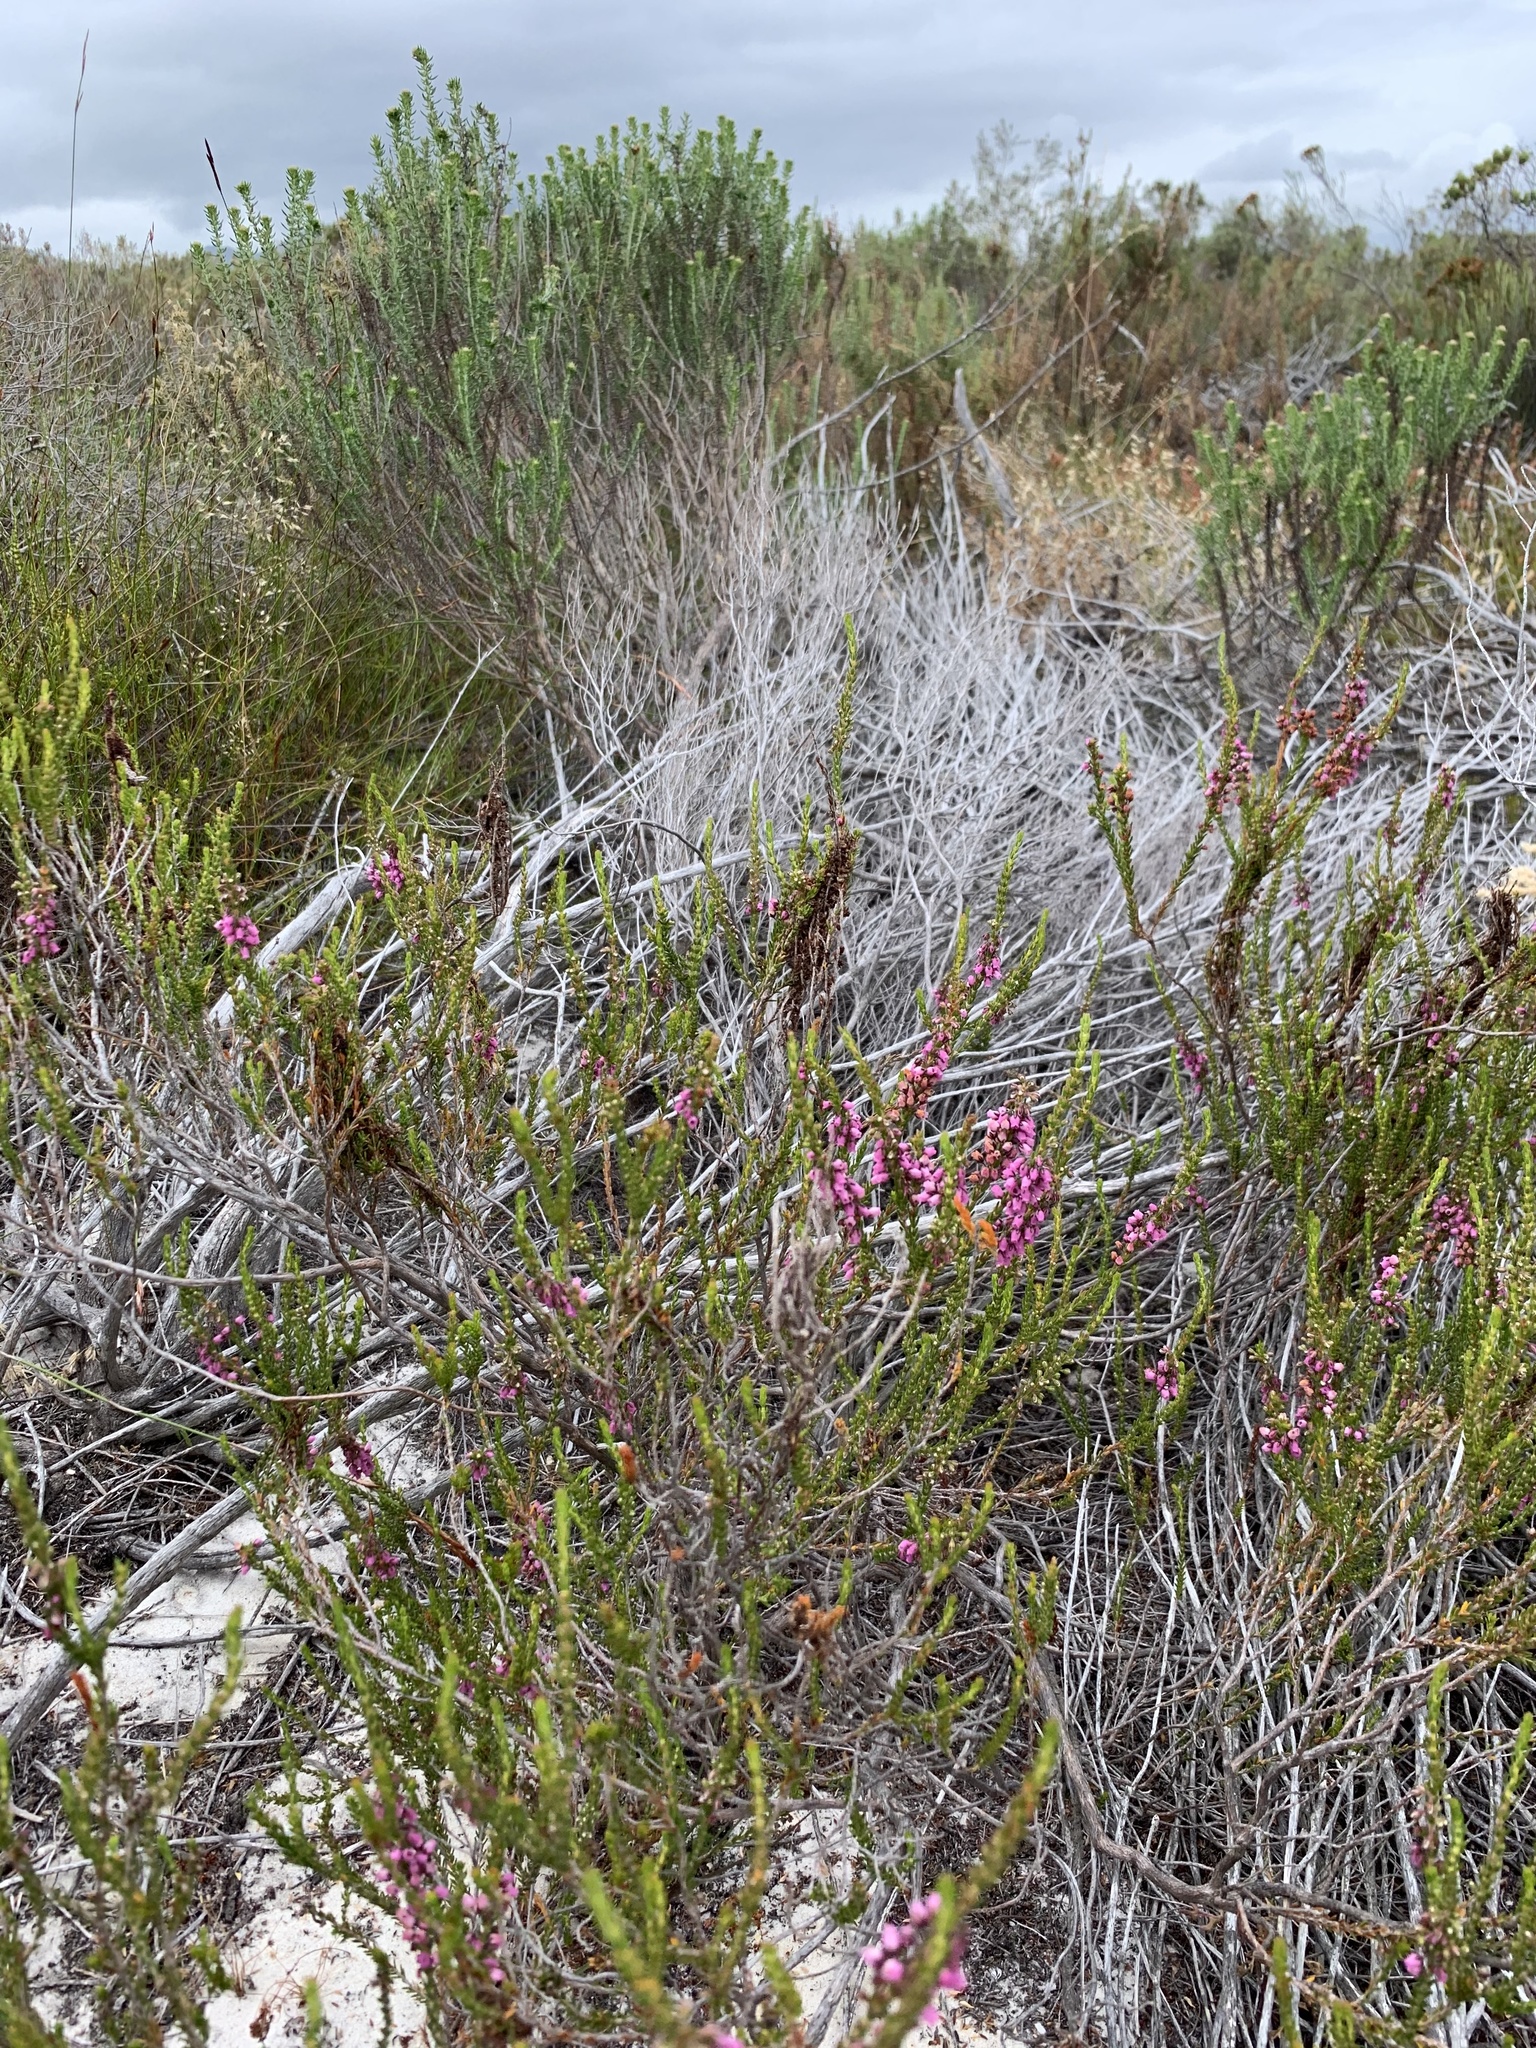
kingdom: Plantae
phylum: Tracheophyta
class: Magnoliopsida
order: Ericales
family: Ericaceae
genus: Erica
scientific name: Erica pulchella
